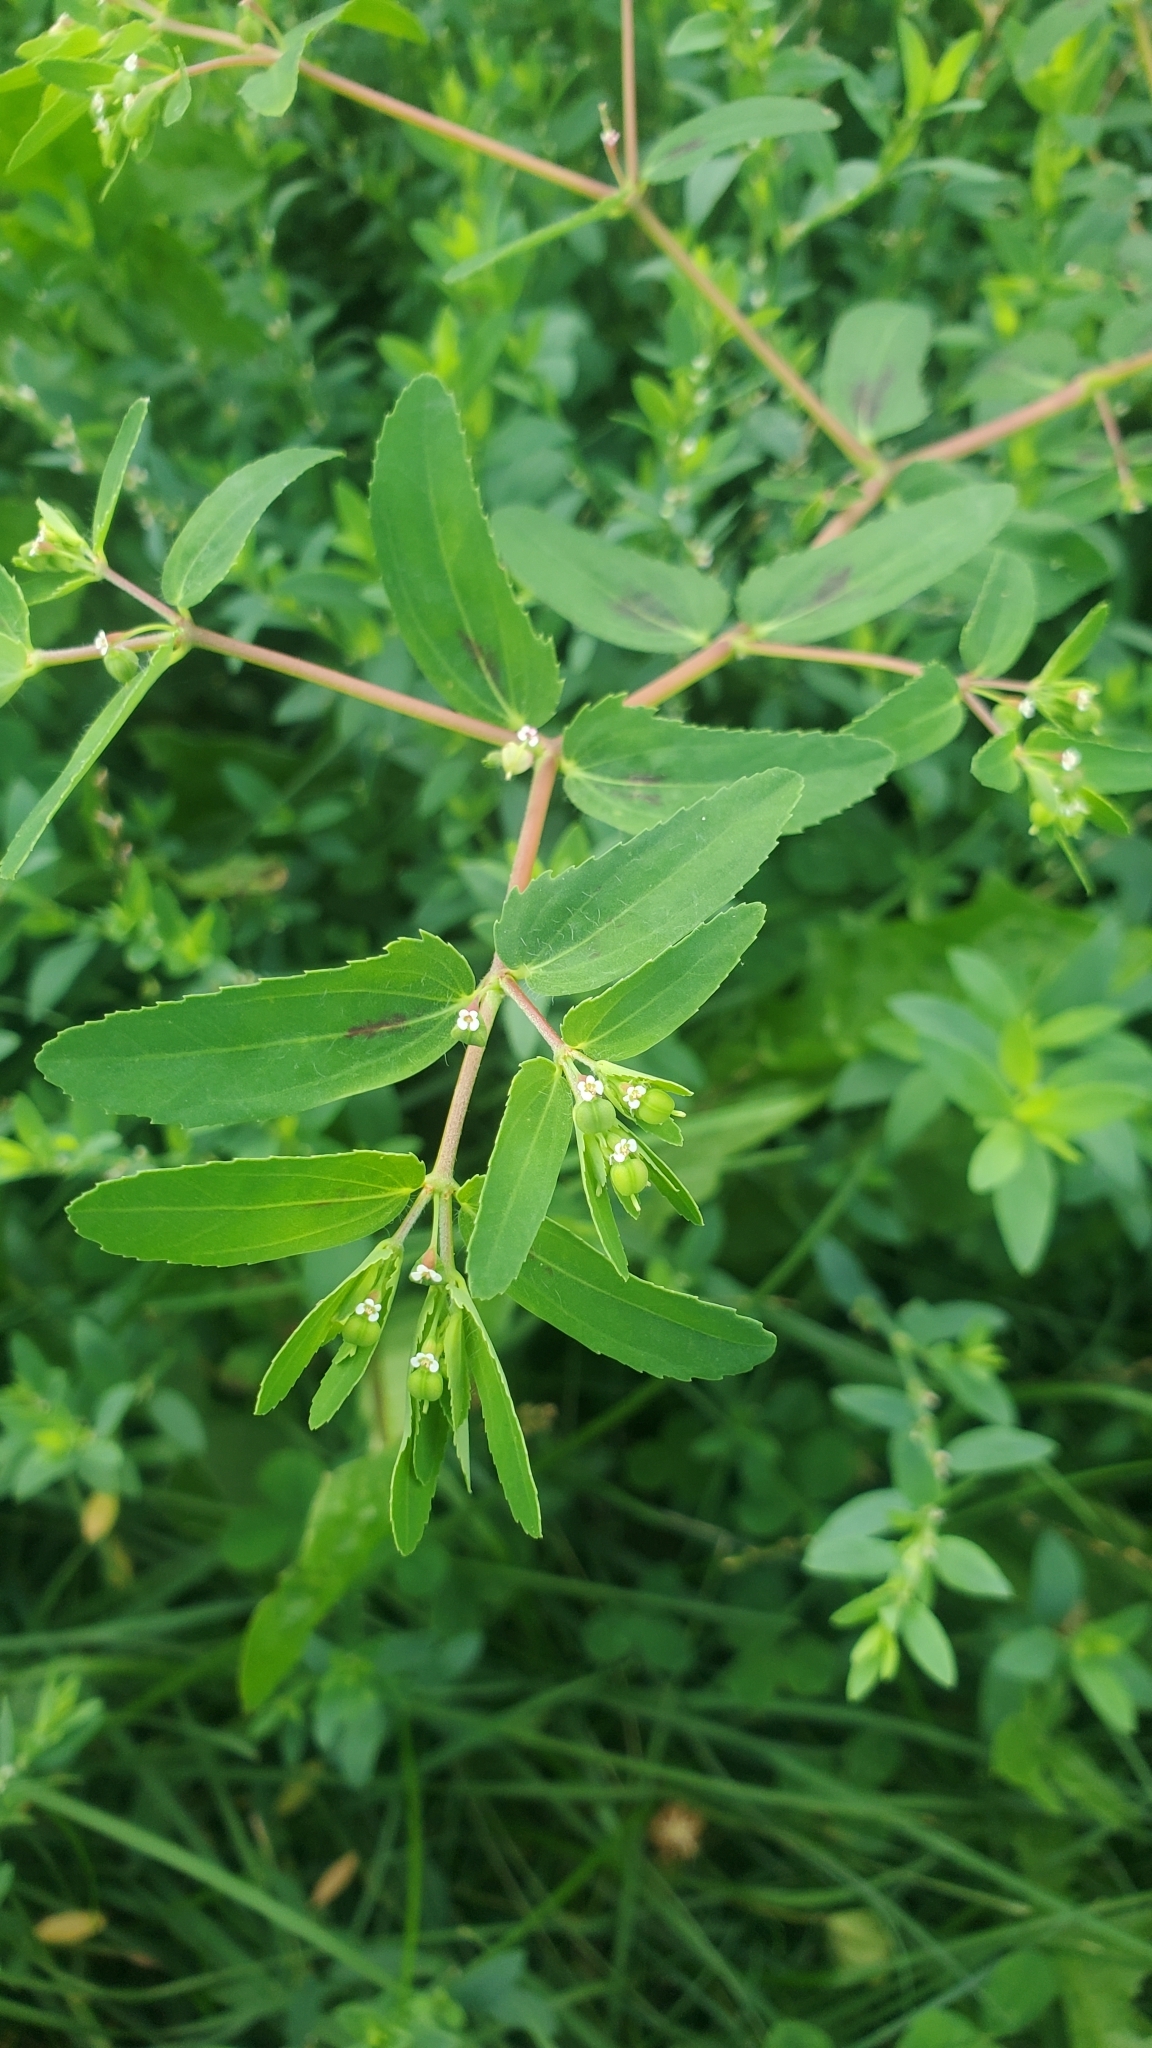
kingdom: Plantae
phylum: Tracheophyta
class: Magnoliopsida
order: Malpighiales
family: Euphorbiaceae
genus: Euphorbia
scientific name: Euphorbia nutans
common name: Eyebane
